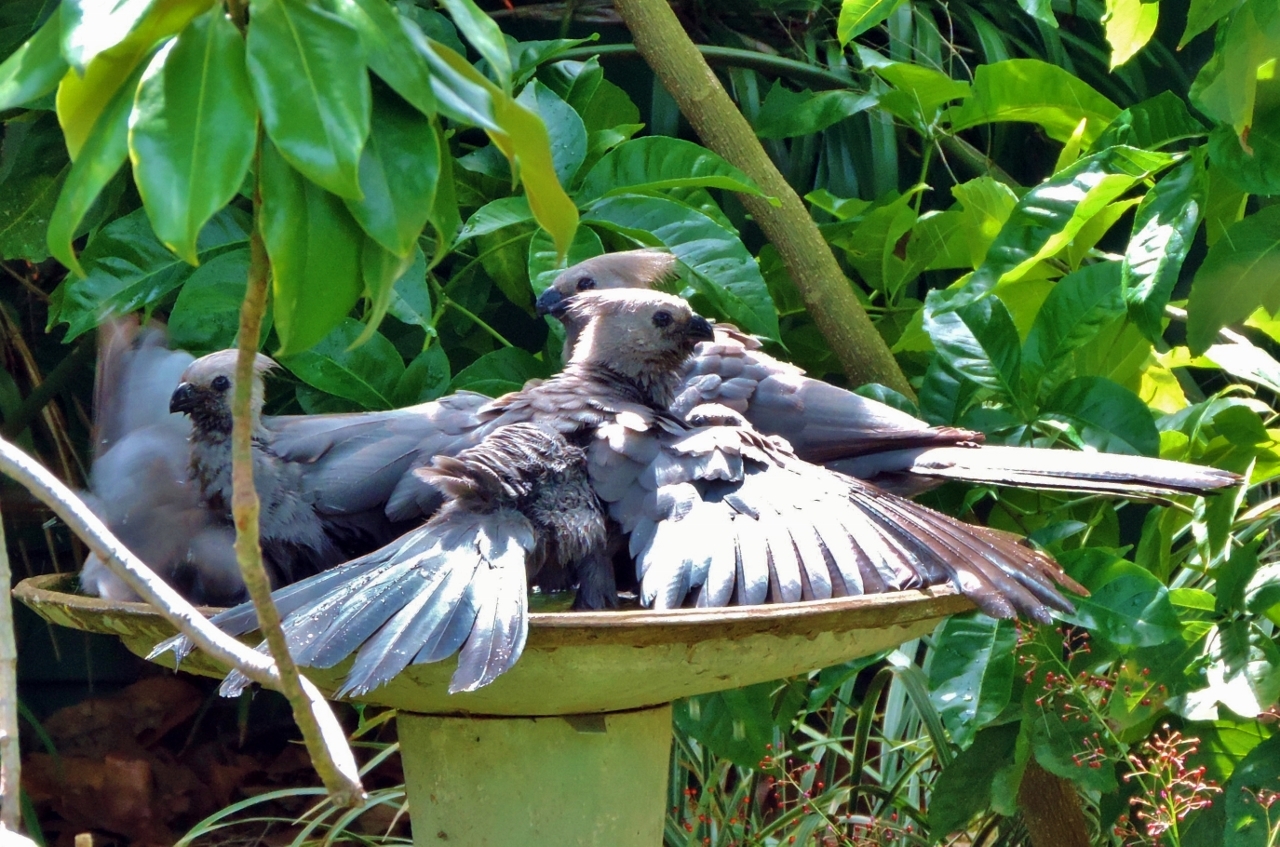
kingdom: Animalia
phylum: Chordata
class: Aves
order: Musophagiformes
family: Musophagidae
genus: Corythaixoides
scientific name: Corythaixoides concolor
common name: Grey go-away-bird
